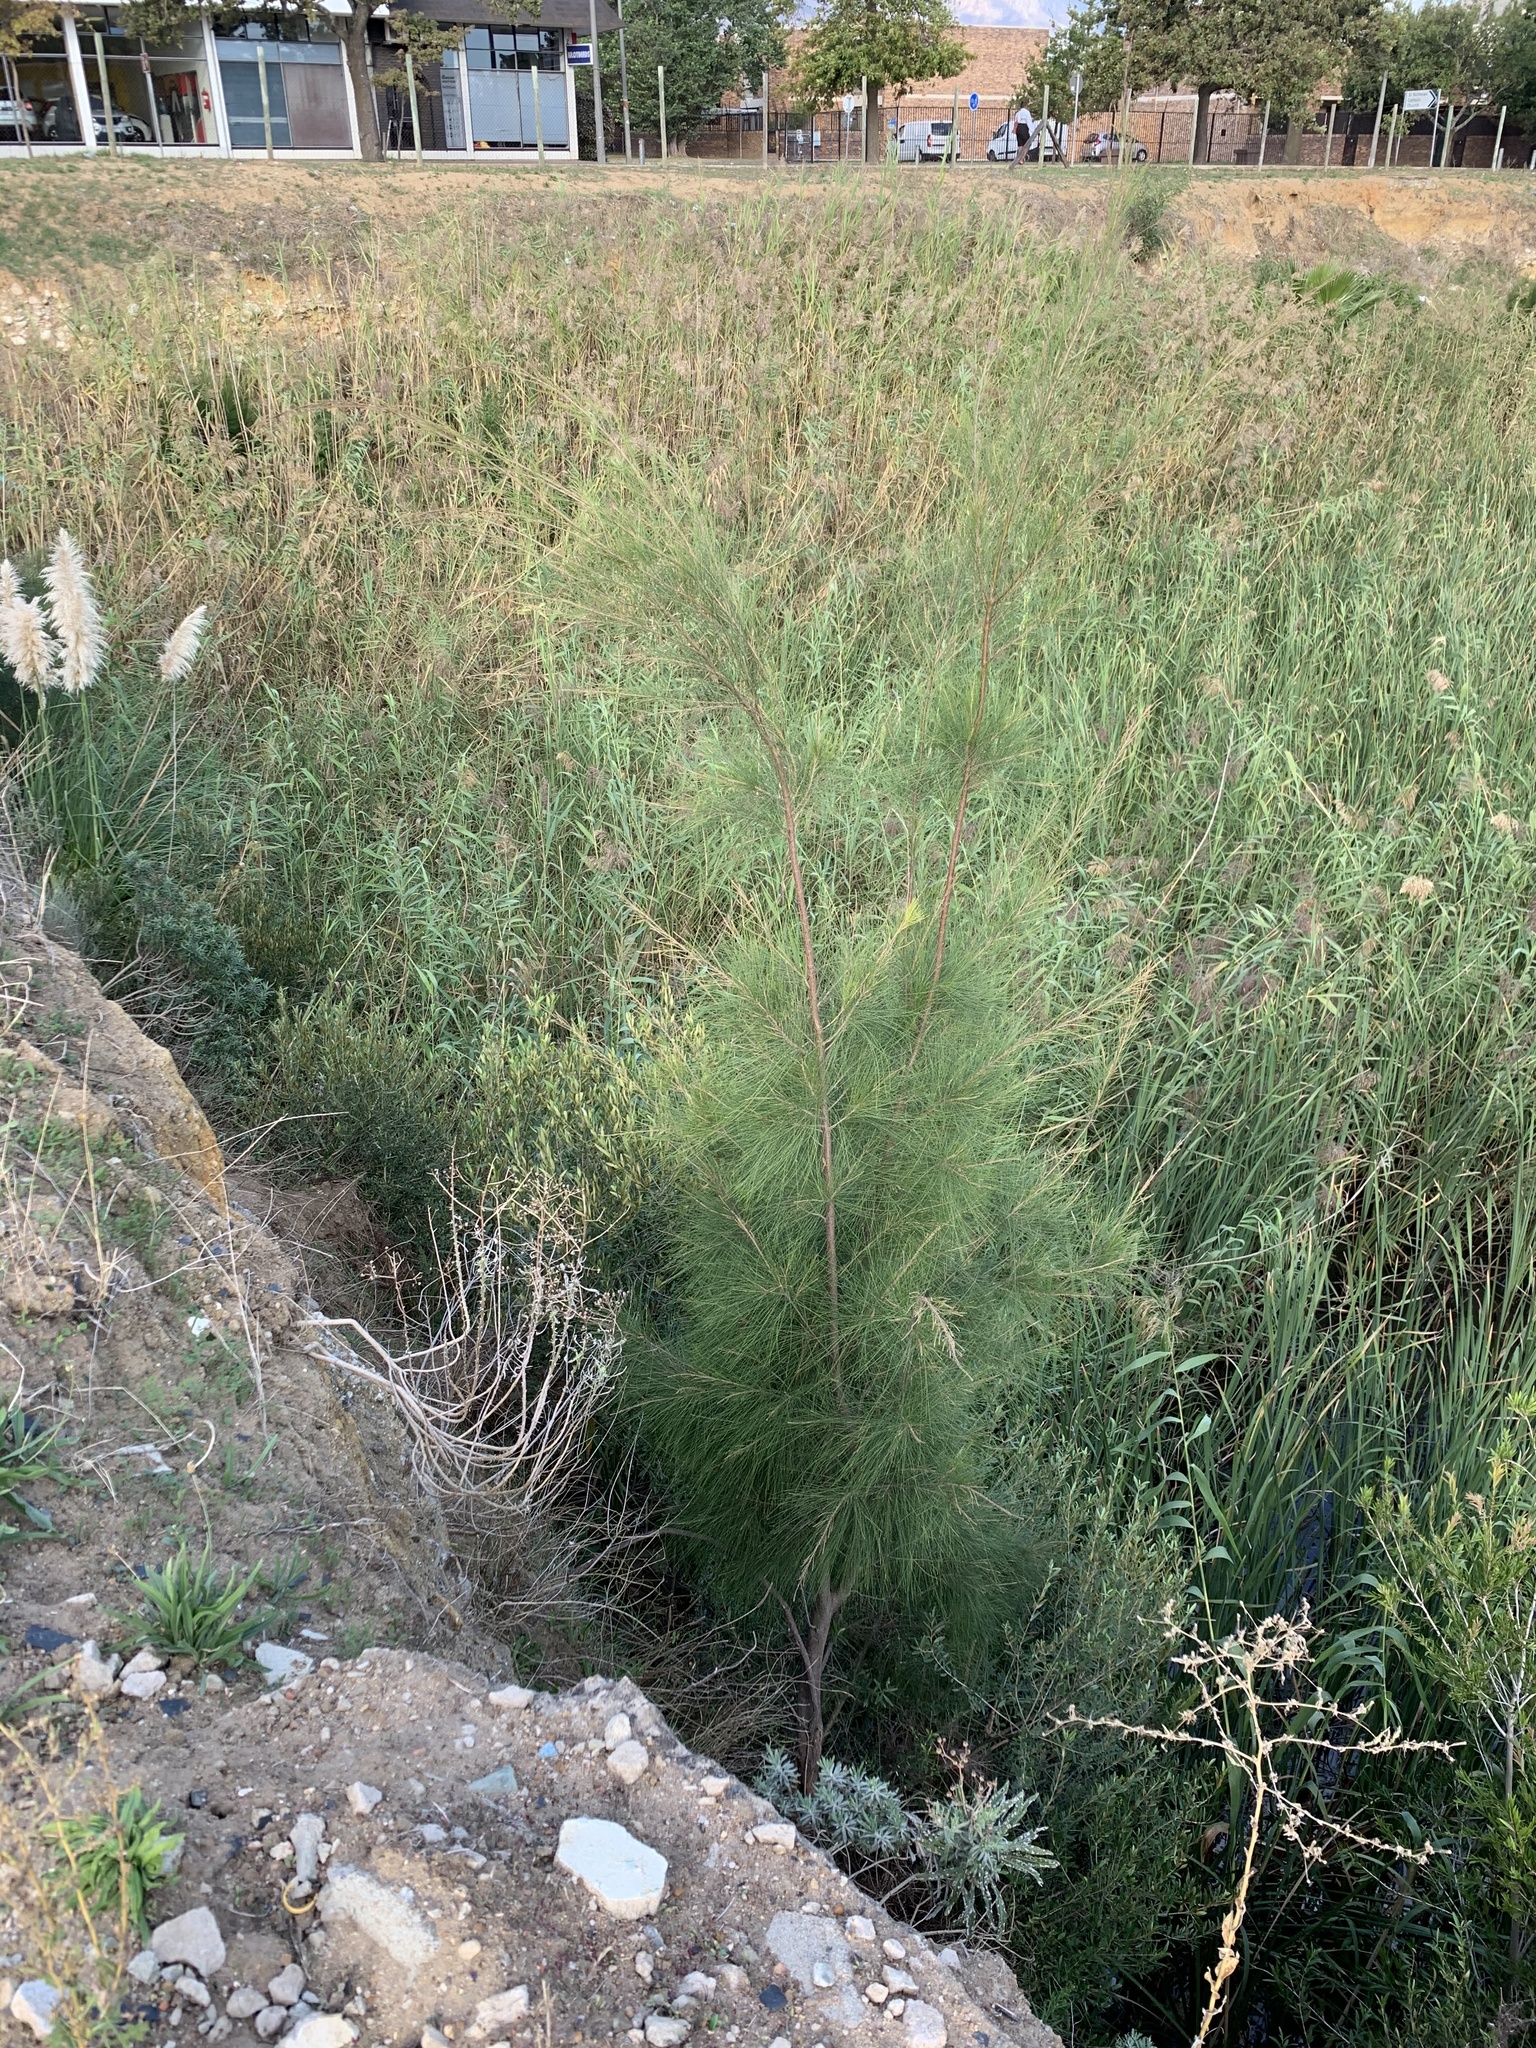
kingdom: Plantae
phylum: Tracheophyta
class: Magnoliopsida
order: Fagales
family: Casuarinaceae
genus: Casuarina
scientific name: Casuarina cunninghamiana
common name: River sheoak
